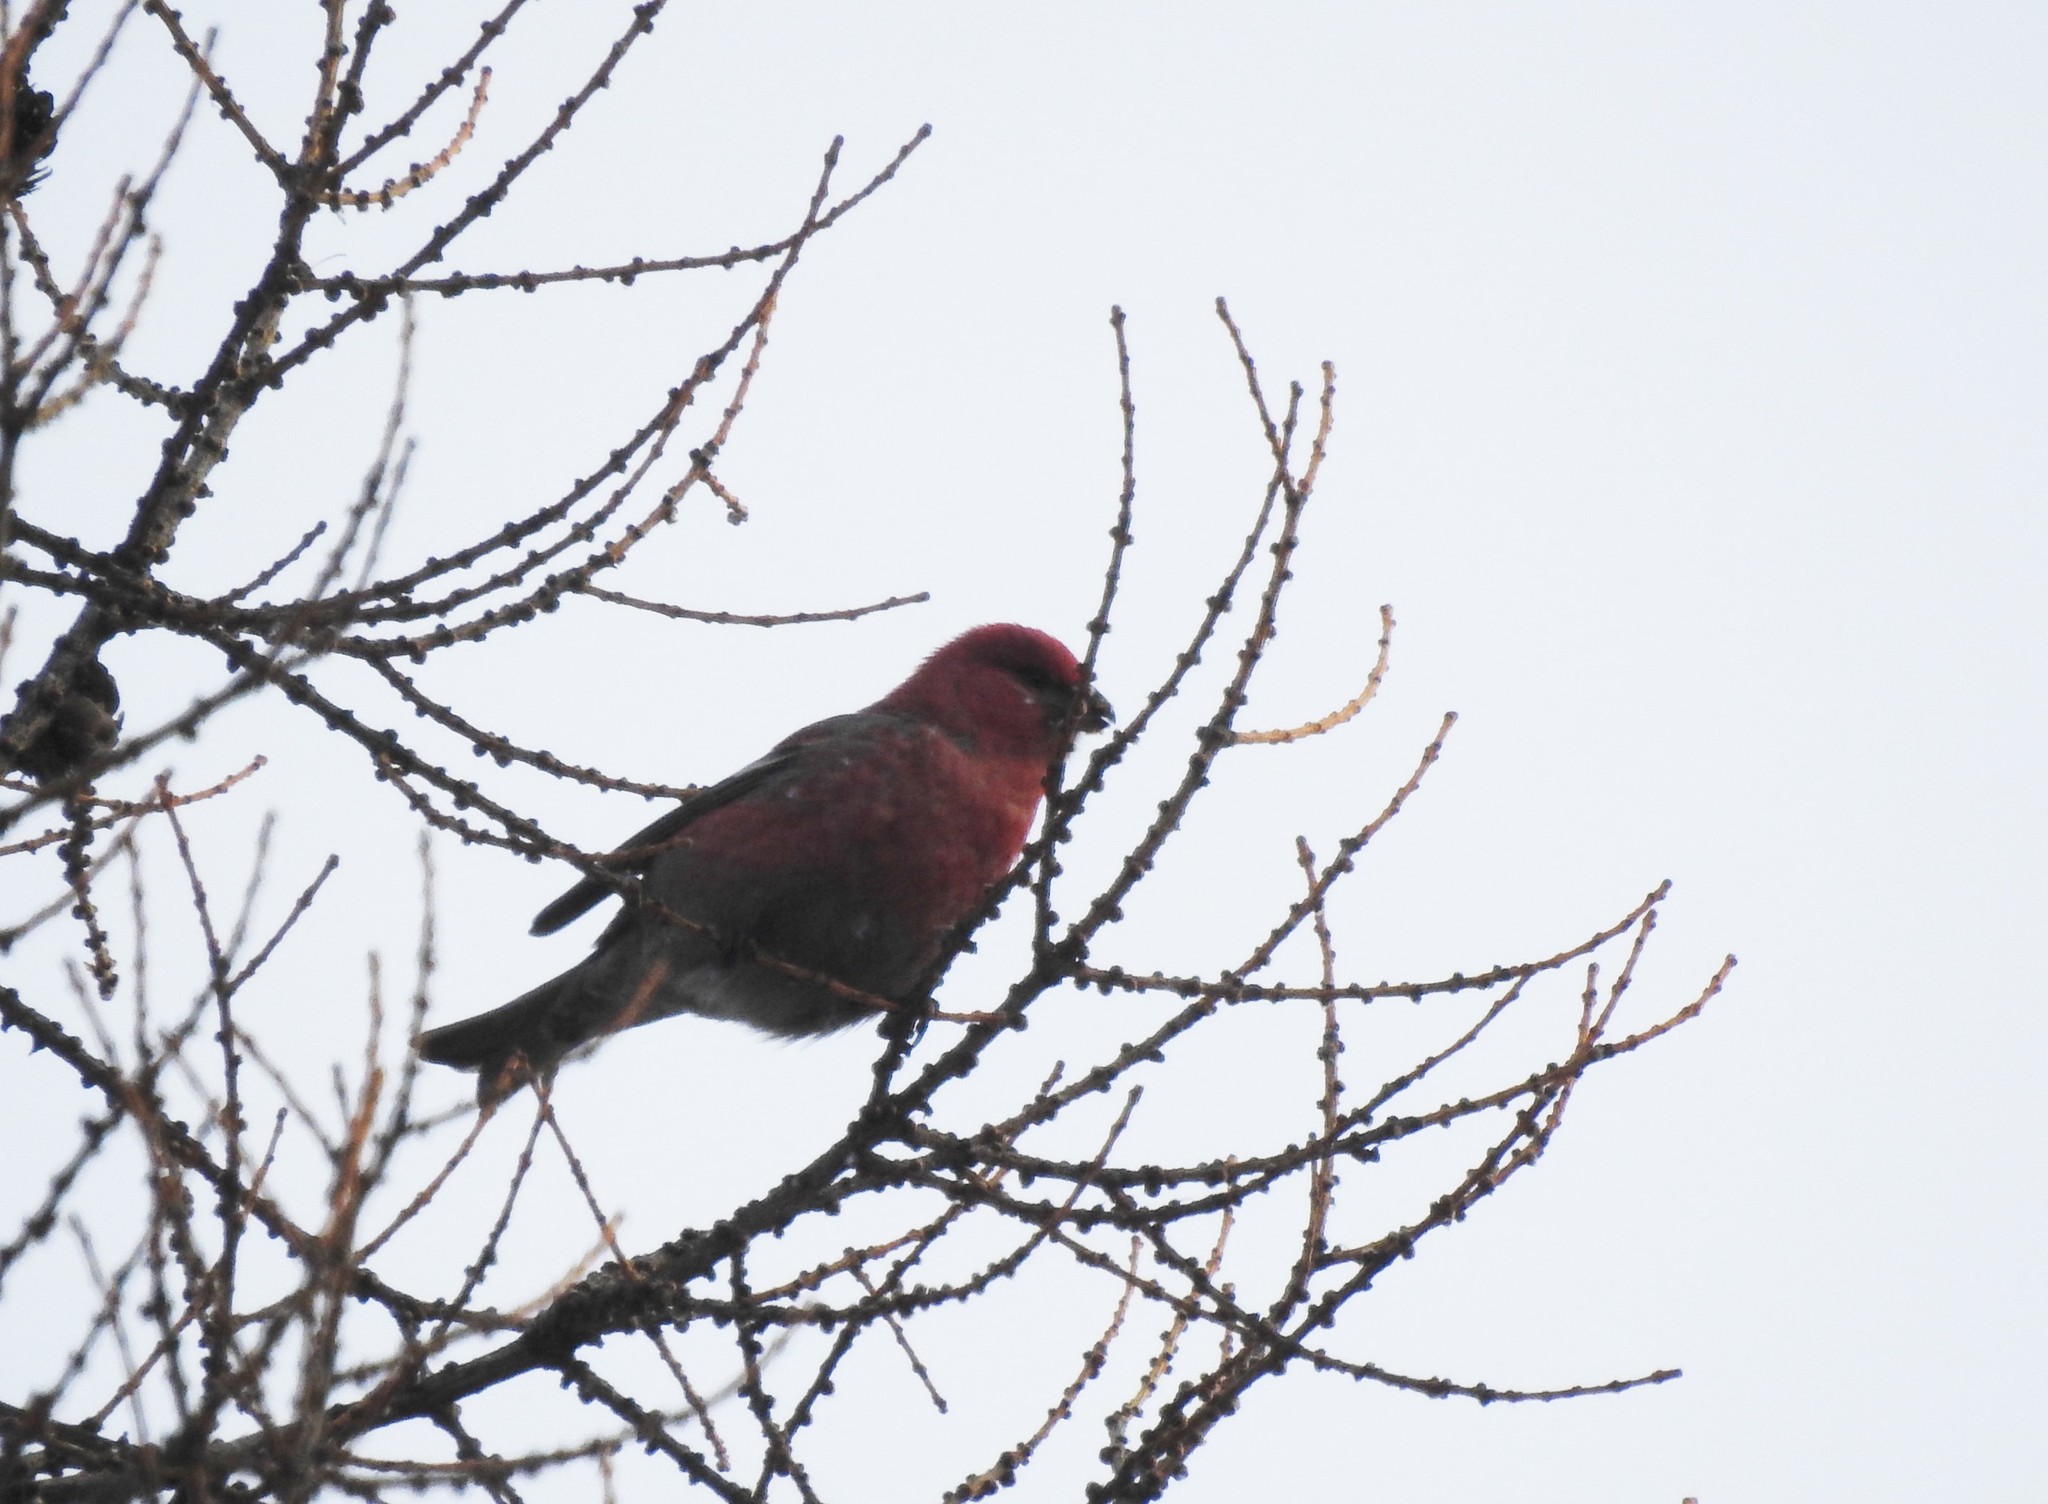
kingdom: Animalia
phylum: Chordata
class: Aves
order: Passeriformes
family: Fringillidae
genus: Pinicola
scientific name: Pinicola enucleator
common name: Pine grosbeak
